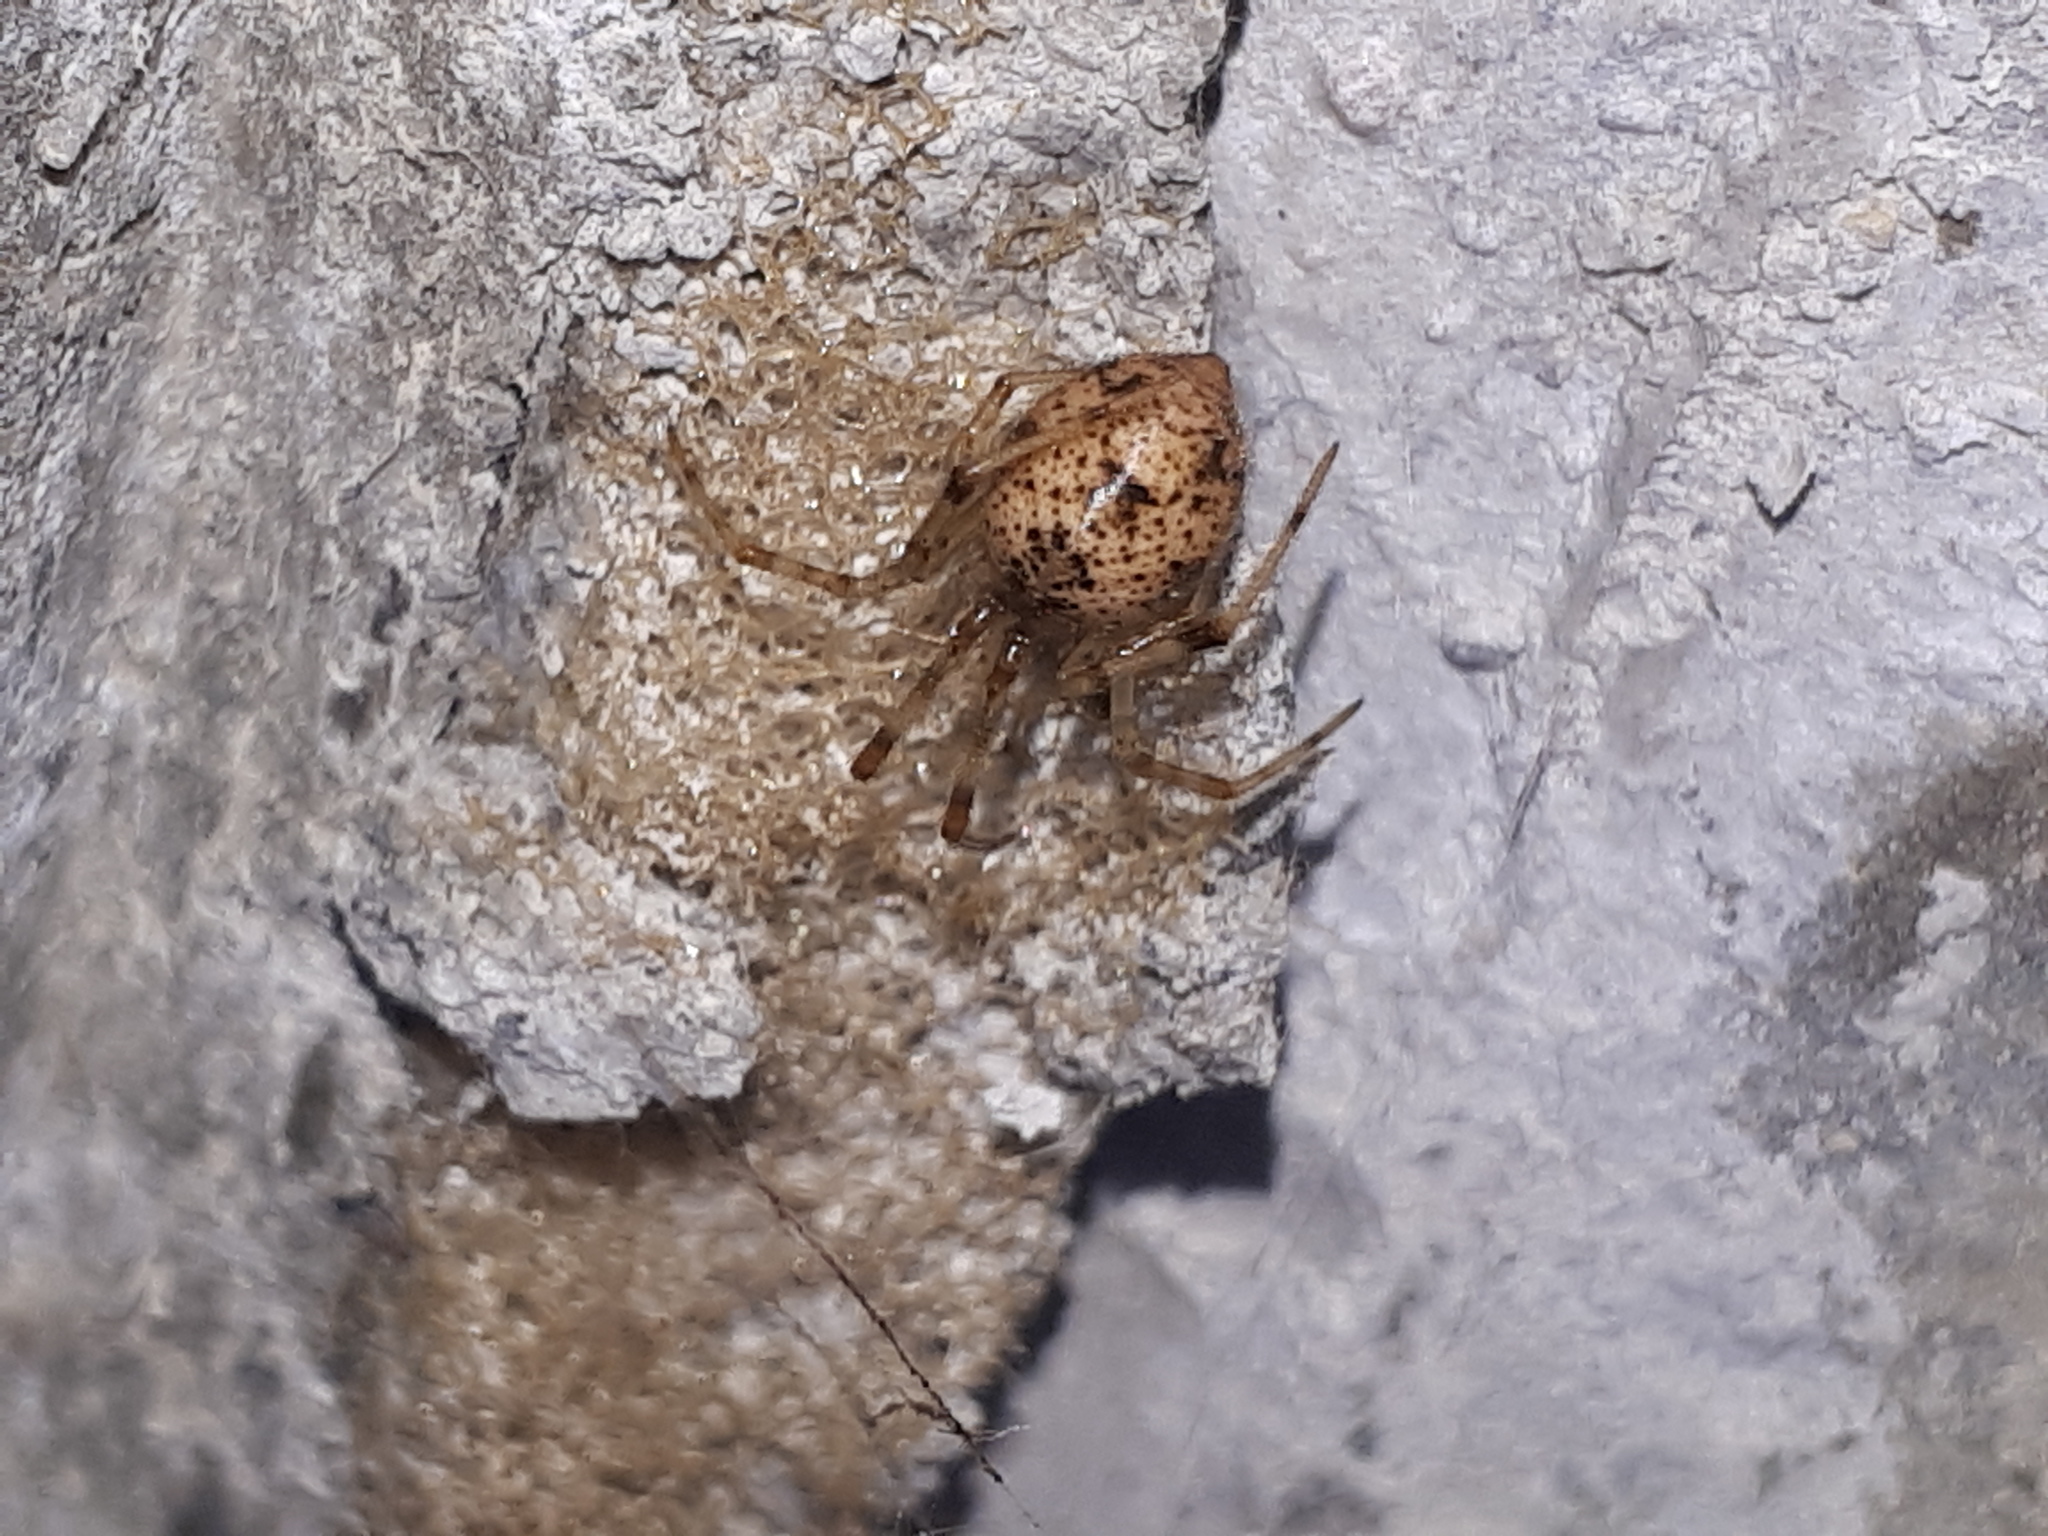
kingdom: Animalia
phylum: Arthropoda
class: Arachnida
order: Araneae
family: Theridiidae
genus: Parasteatoda
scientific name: Parasteatoda tepidariorum
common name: Common house spider
